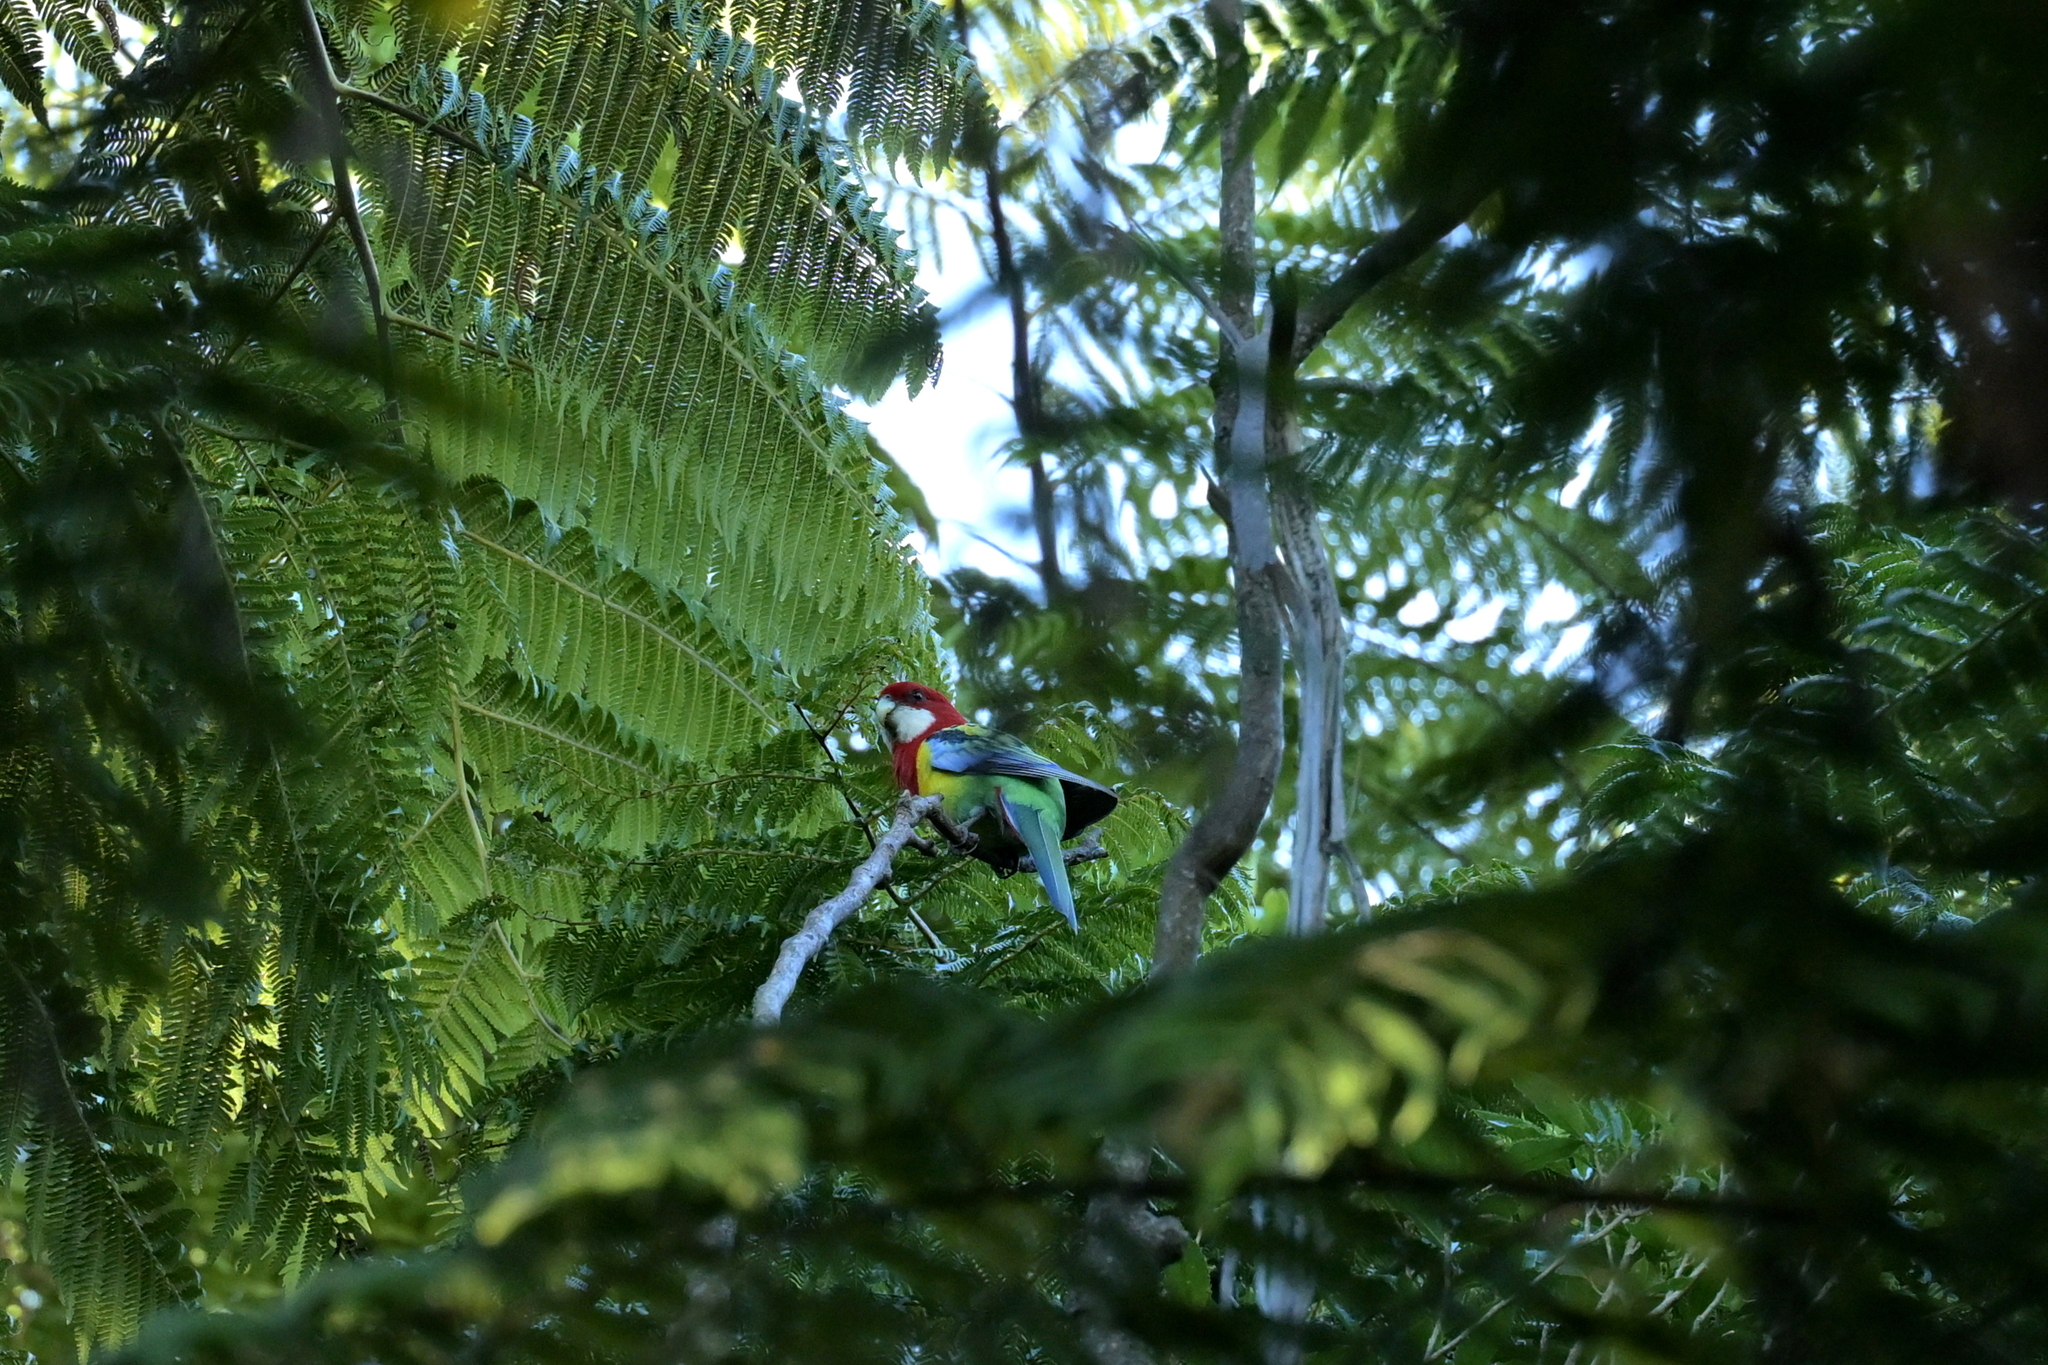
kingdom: Animalia
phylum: Chordata
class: Aves
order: Psittaciformes
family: Psittacidae
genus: Platycercus
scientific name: Platycercus eximius
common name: Eastern rosella
